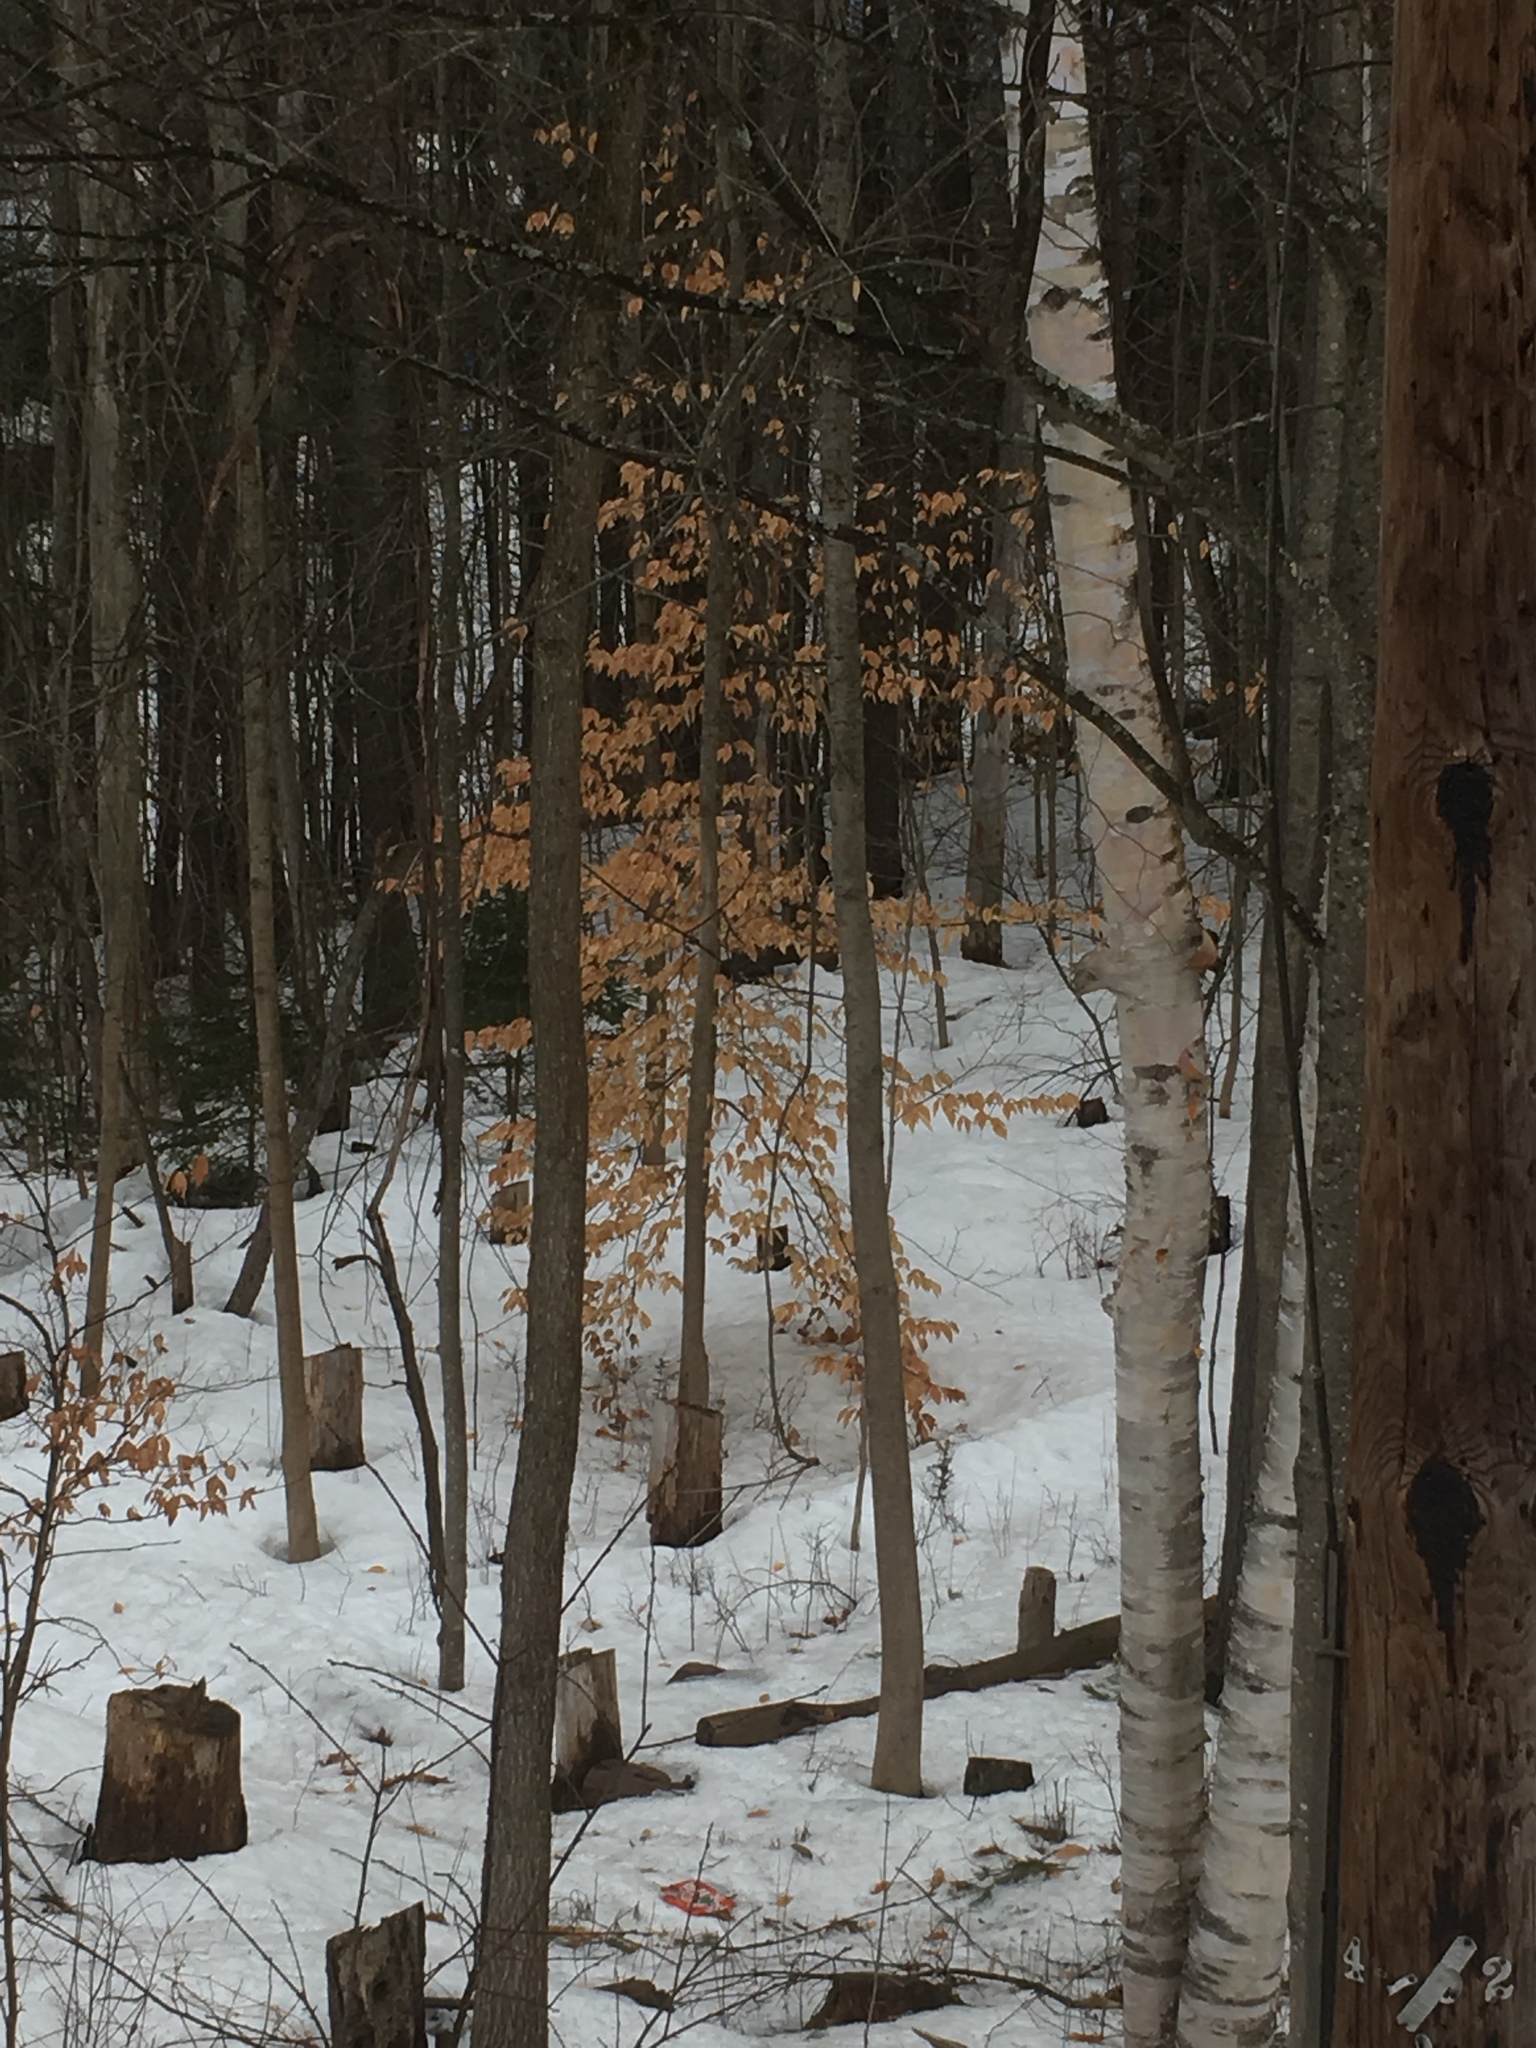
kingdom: Plantae
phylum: Tracheophyta
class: Magnoliopsida
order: Fagales
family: Fagaceae
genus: Fagus
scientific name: Fagus grandifolia
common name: American beech
